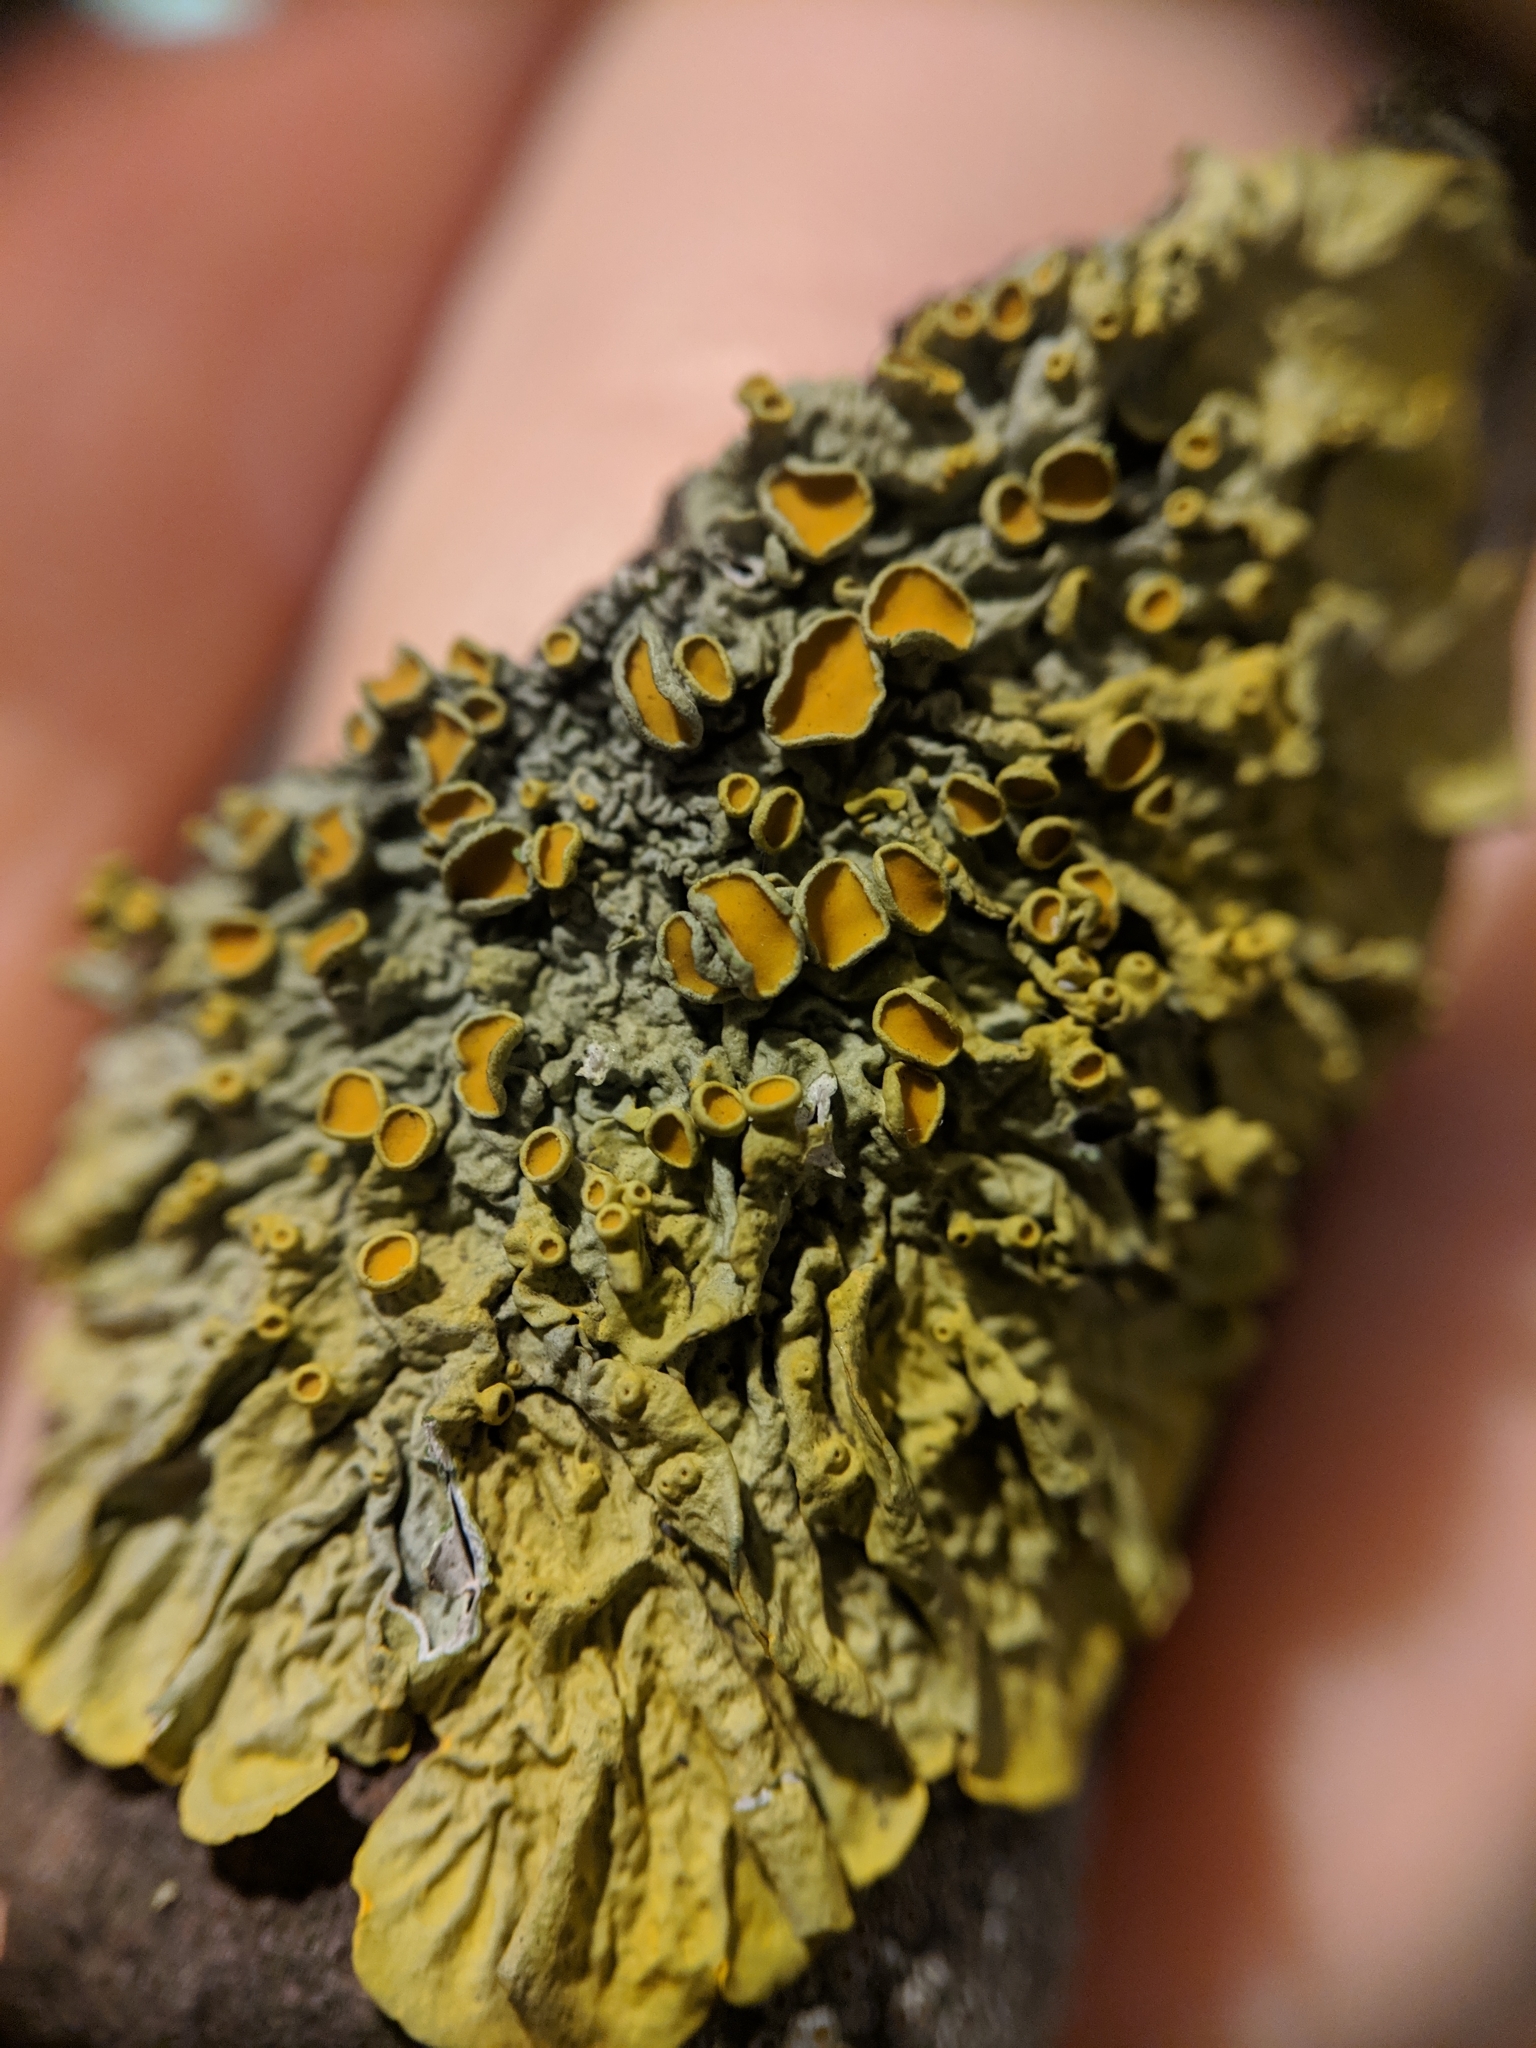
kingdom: Fungi
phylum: Ascomycota
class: Lecanoromycetes
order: Teloschistales
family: Teloschistaceae
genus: Xanthoria
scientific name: Xanthoria parietina
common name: Common orange lichen
